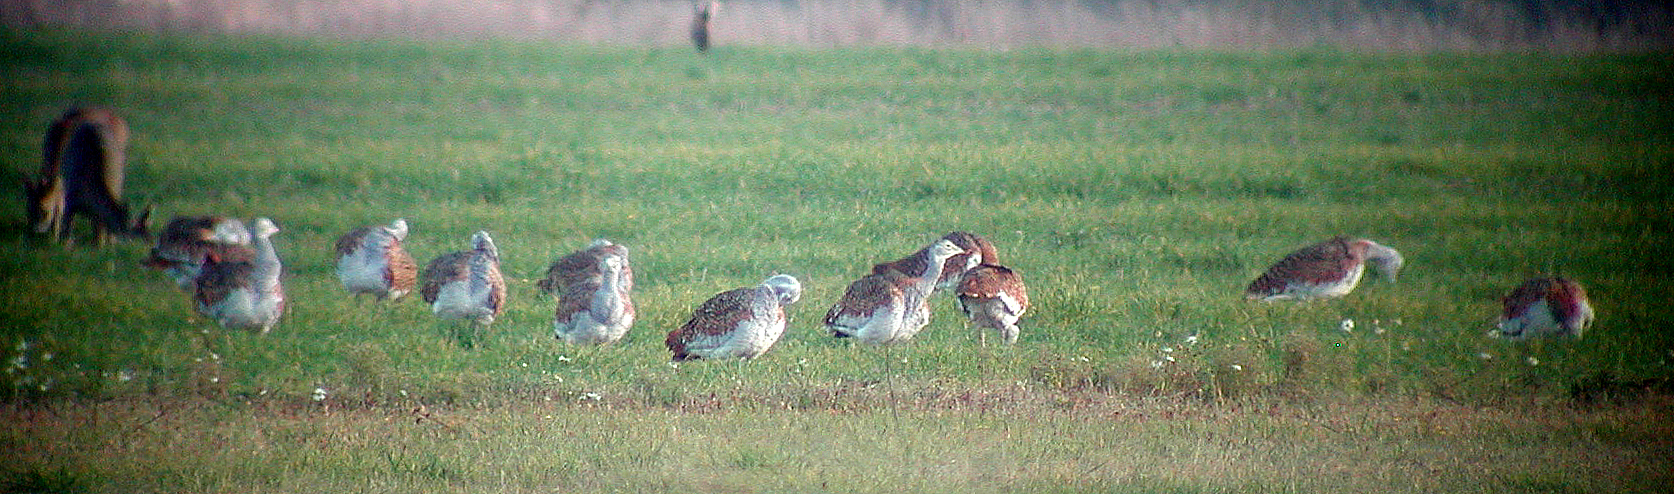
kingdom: Animalia
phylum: Chordata
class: Aves
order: Otidiformes
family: Otididae
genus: Otis
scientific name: Otis tarda
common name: Great bustard
